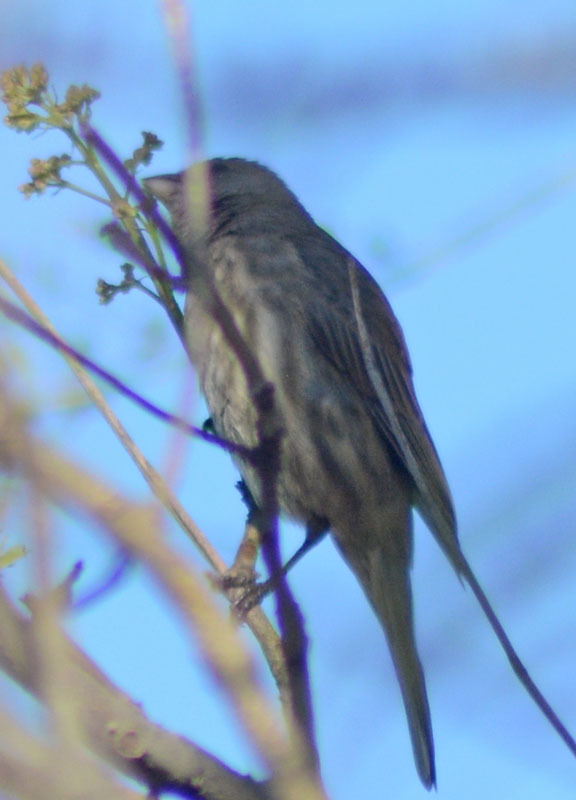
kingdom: Animalia
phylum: Chordata
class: Aves
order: Passeriformes
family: Fringillidae
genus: Haemorhous
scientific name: Haemorhous mexicanus
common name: House finch
